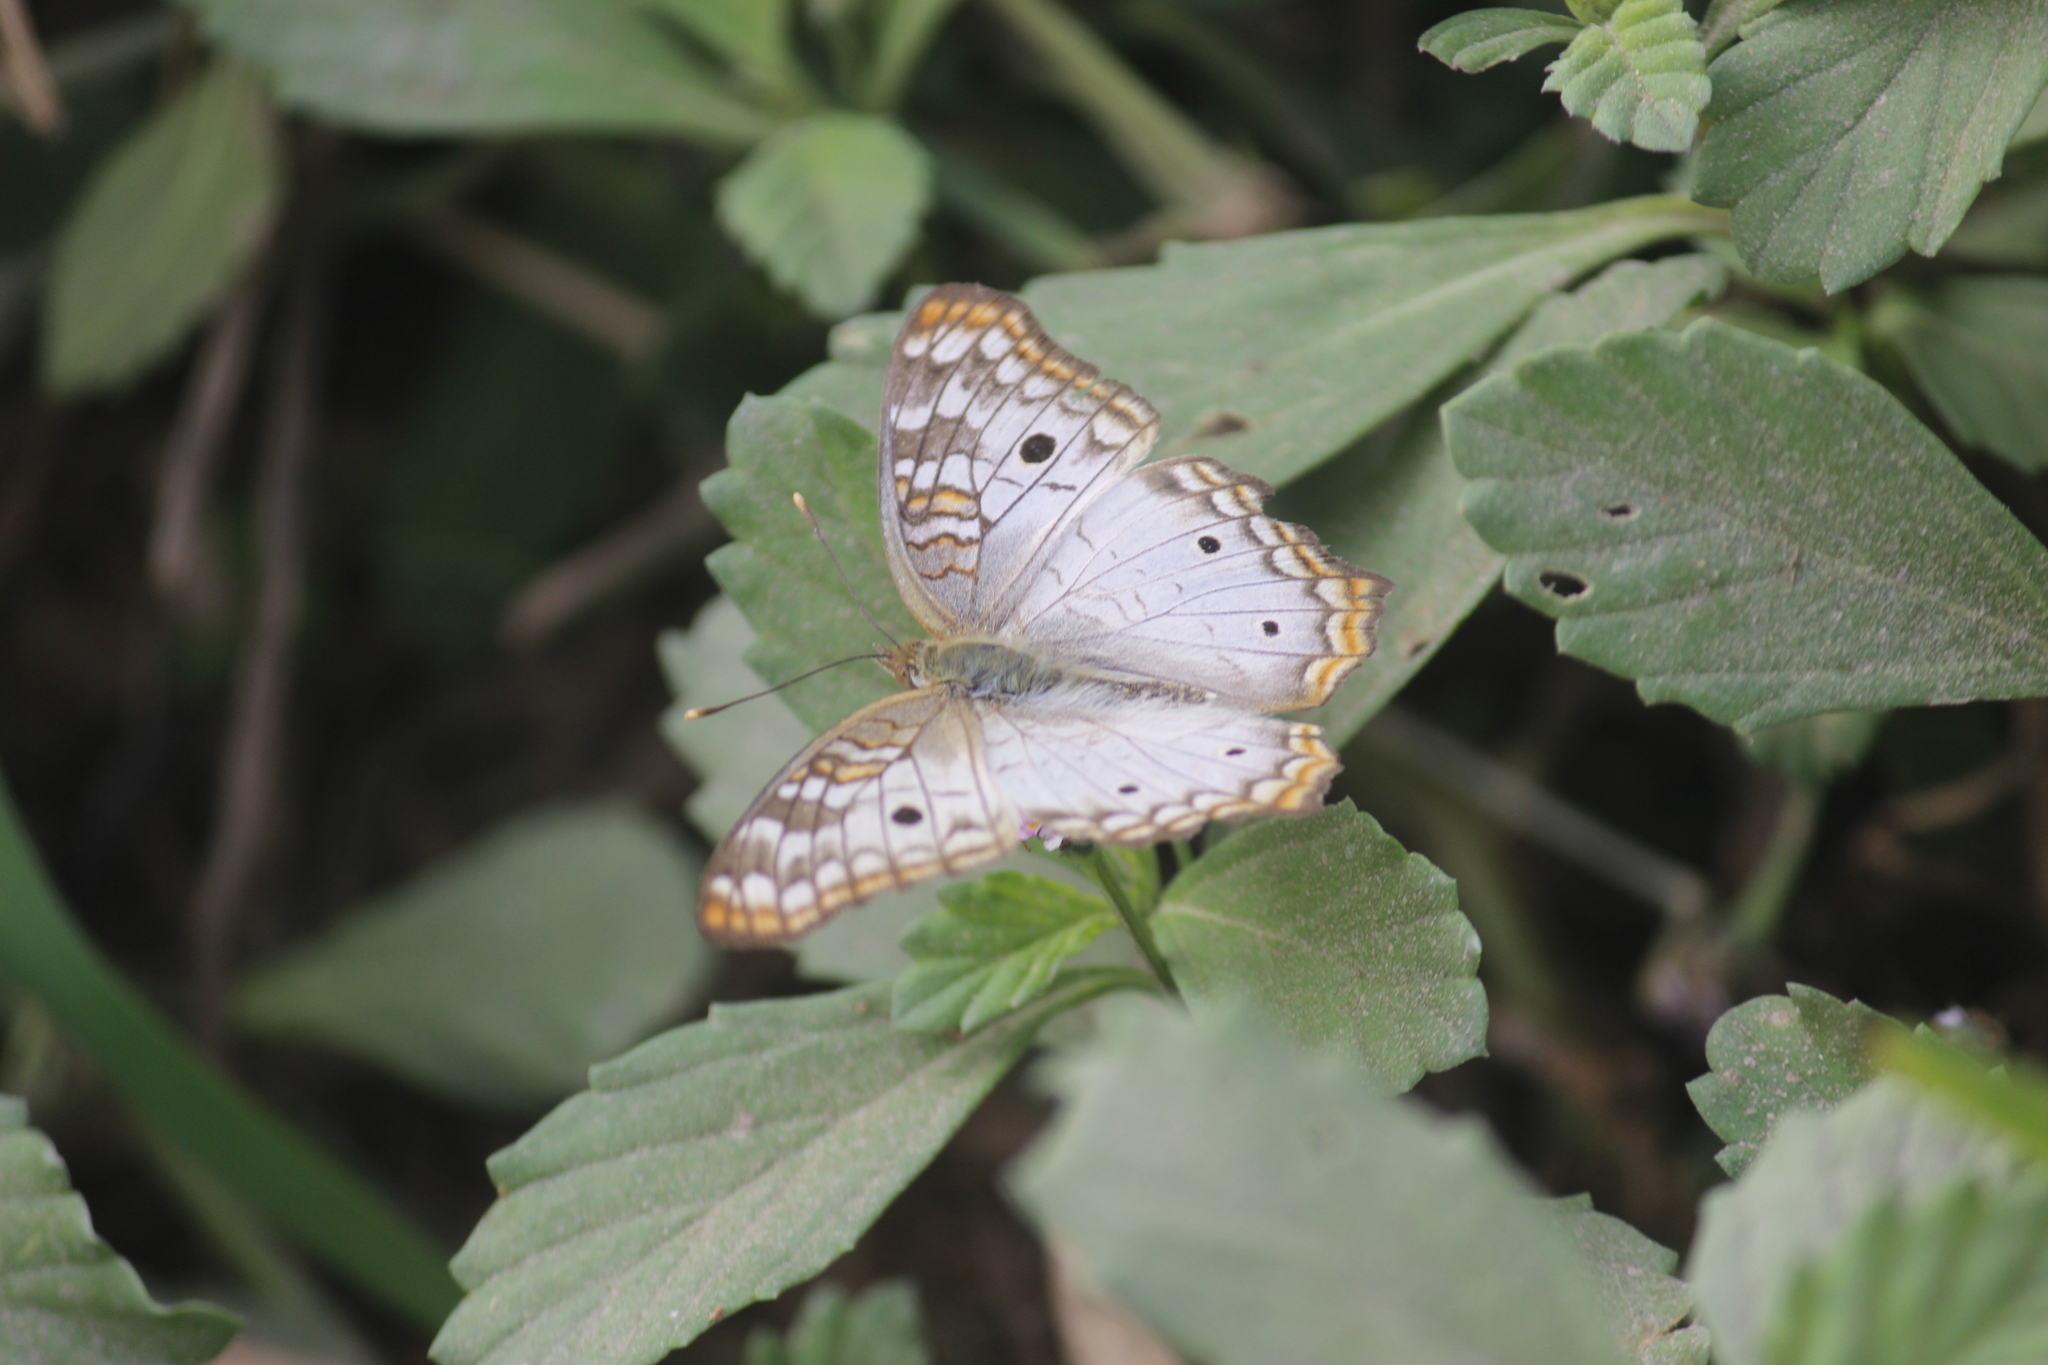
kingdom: Animalia
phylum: Arthropoda
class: Insecta
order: Lepidoptera
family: Nymphalidae
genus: Anartia
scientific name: Anartia jatrophae
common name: White peacock
